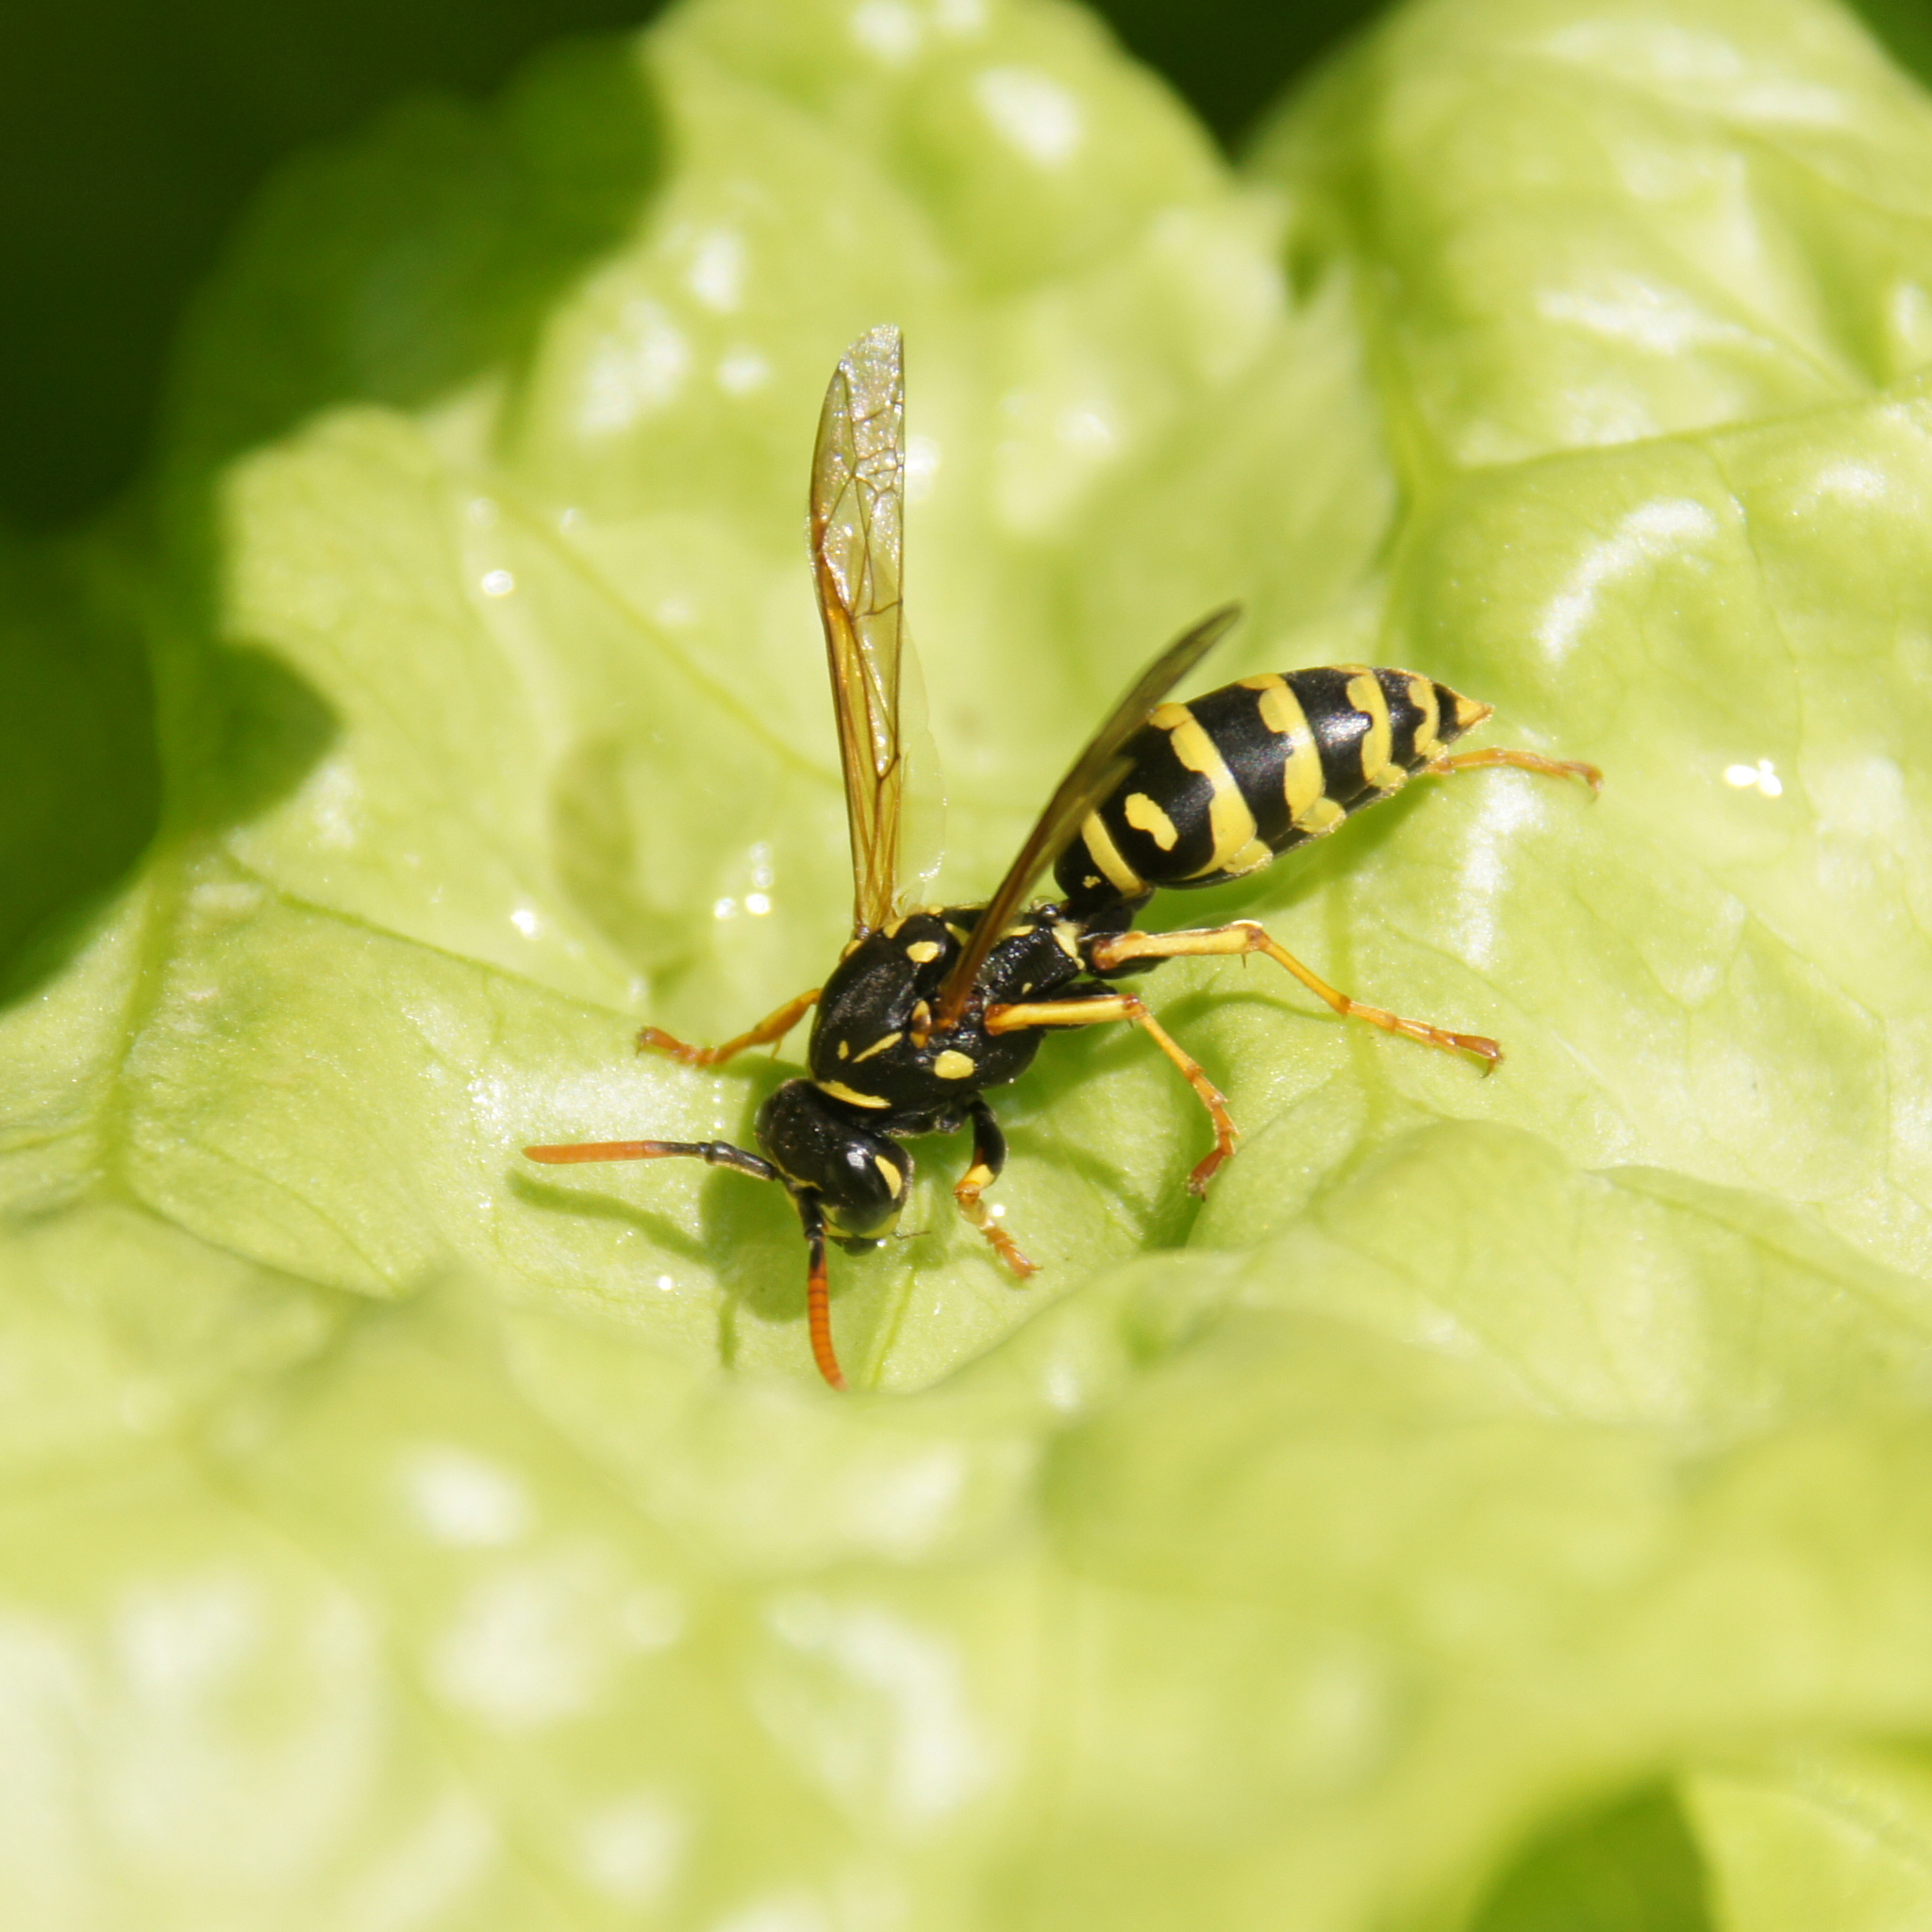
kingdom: Animalia
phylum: Arthropoda
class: Insecta
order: Hymenoptera
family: Eumenidae
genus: Polistes
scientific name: Polistes dominula
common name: Paper wasp
